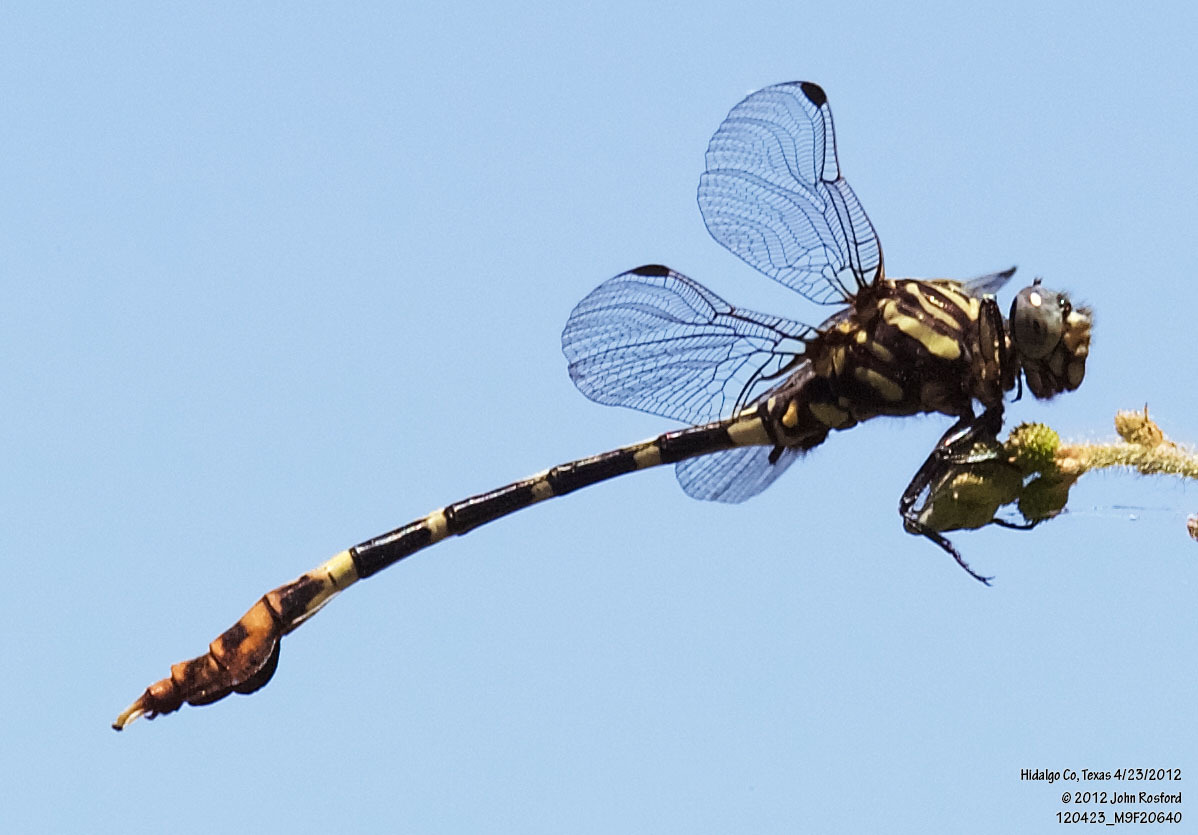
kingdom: Animalia
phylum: Arthropoda
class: Insecta
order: Odonata
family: Gomphidae
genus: Phyllogomphoides
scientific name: Phyllogomphoides albrighti
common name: Five-striped leaftail
